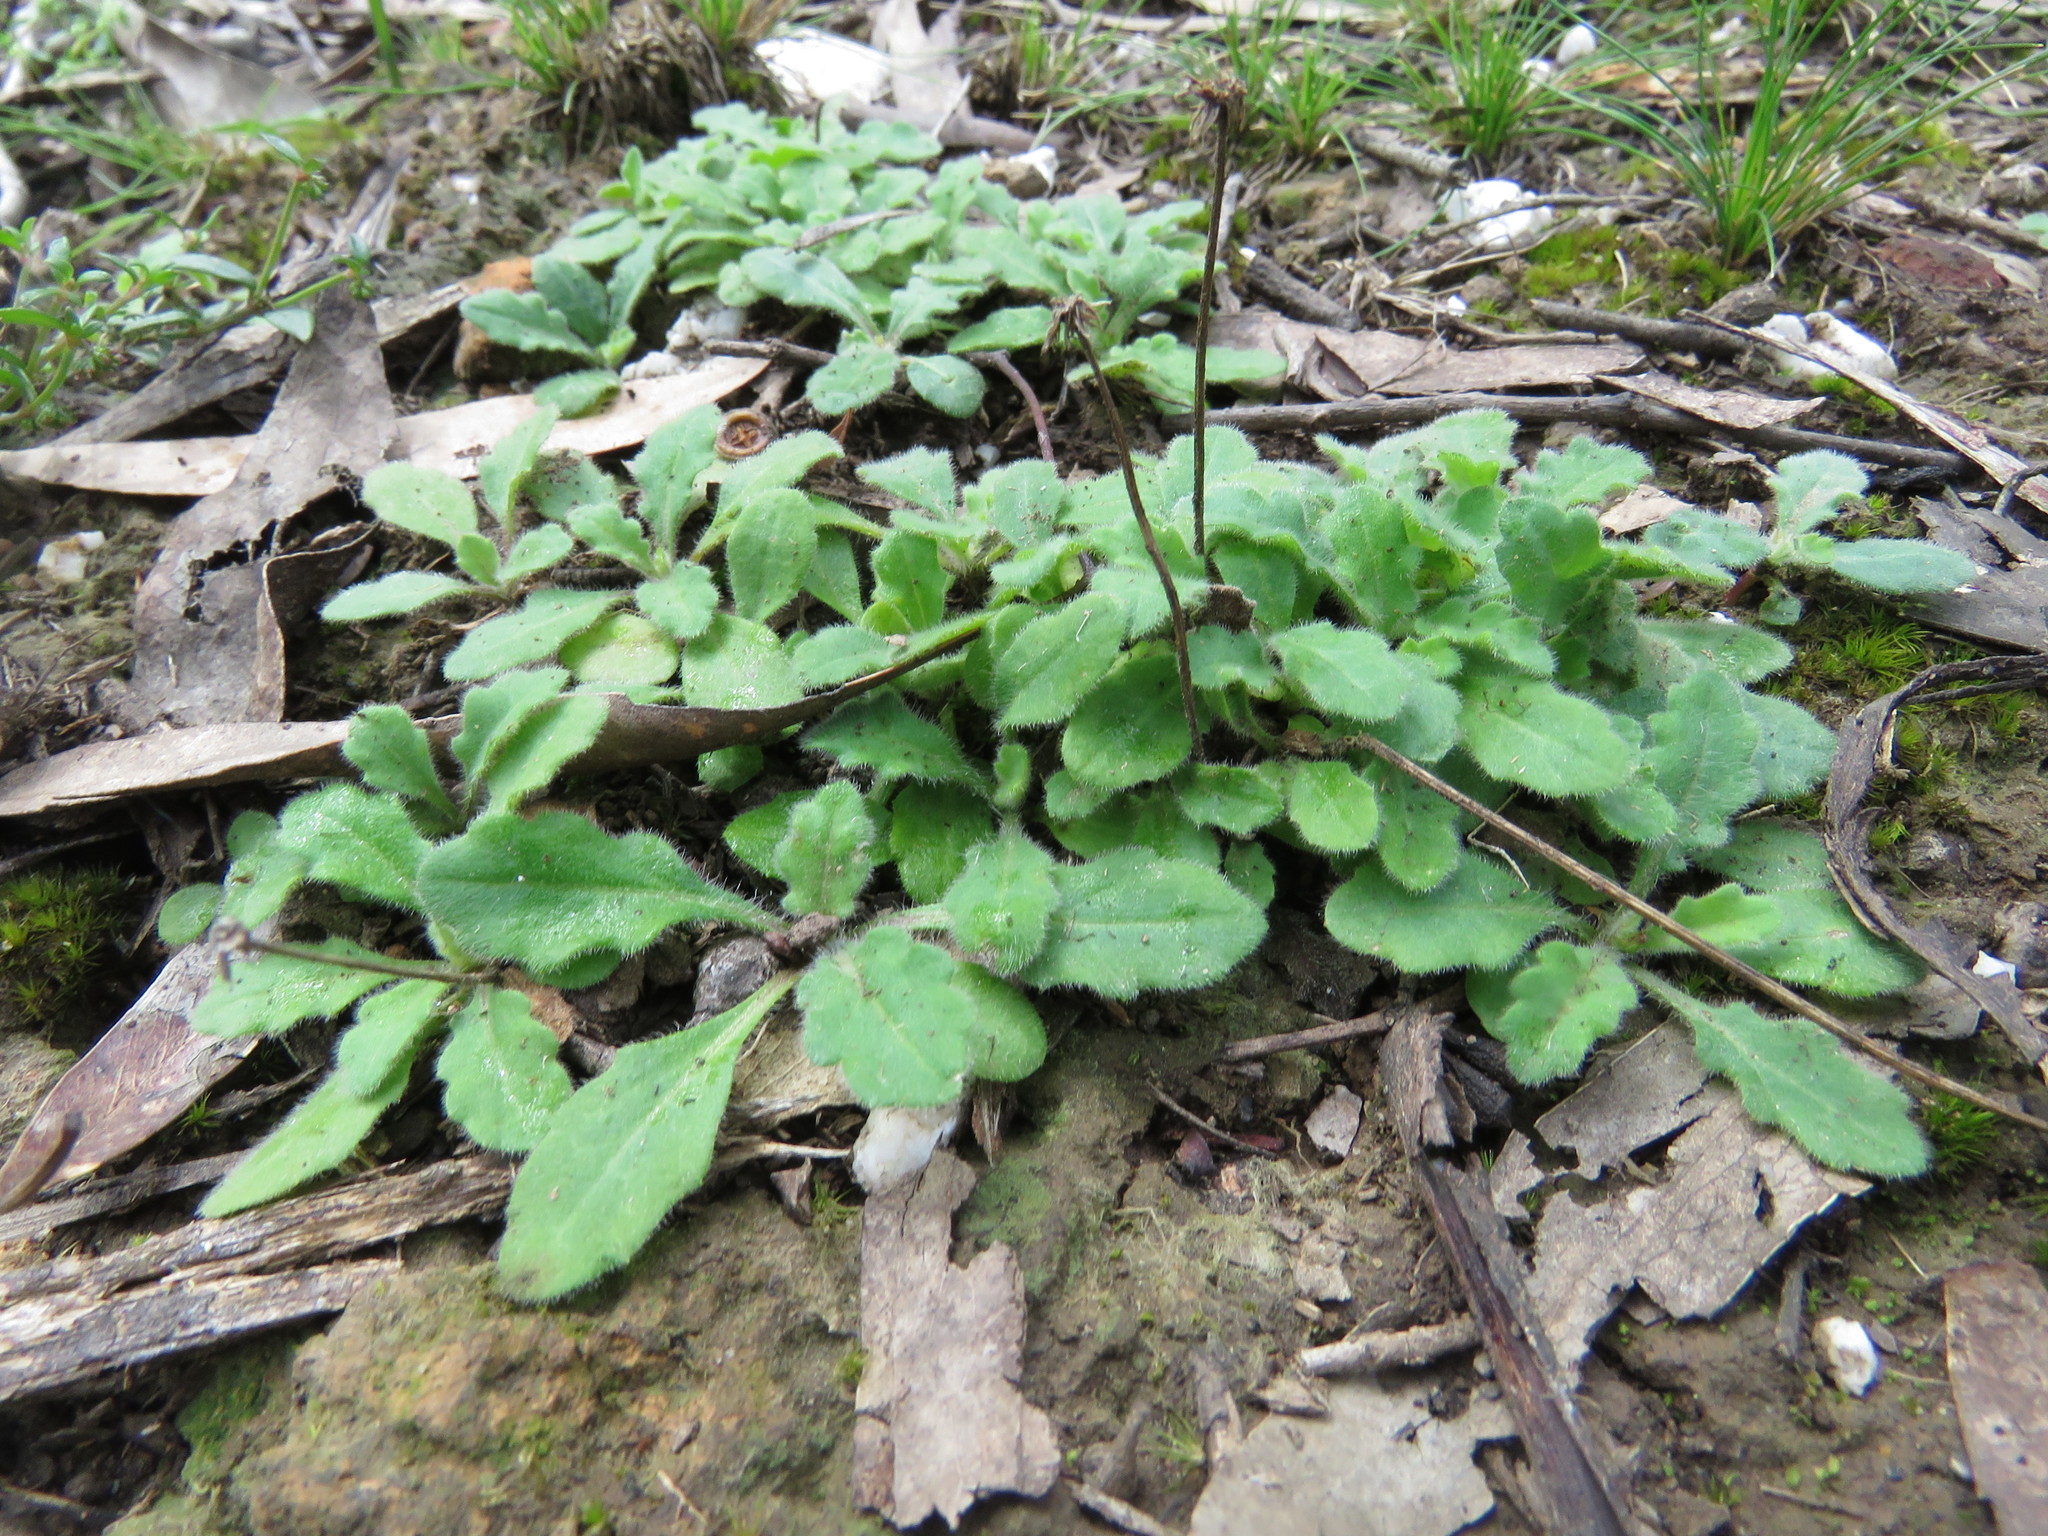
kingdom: Plantae
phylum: Tracheophyta
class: Magnoliopsida
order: Asterales
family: Asteraceae
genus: Lagenophora
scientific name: Lagenophora stipitata
